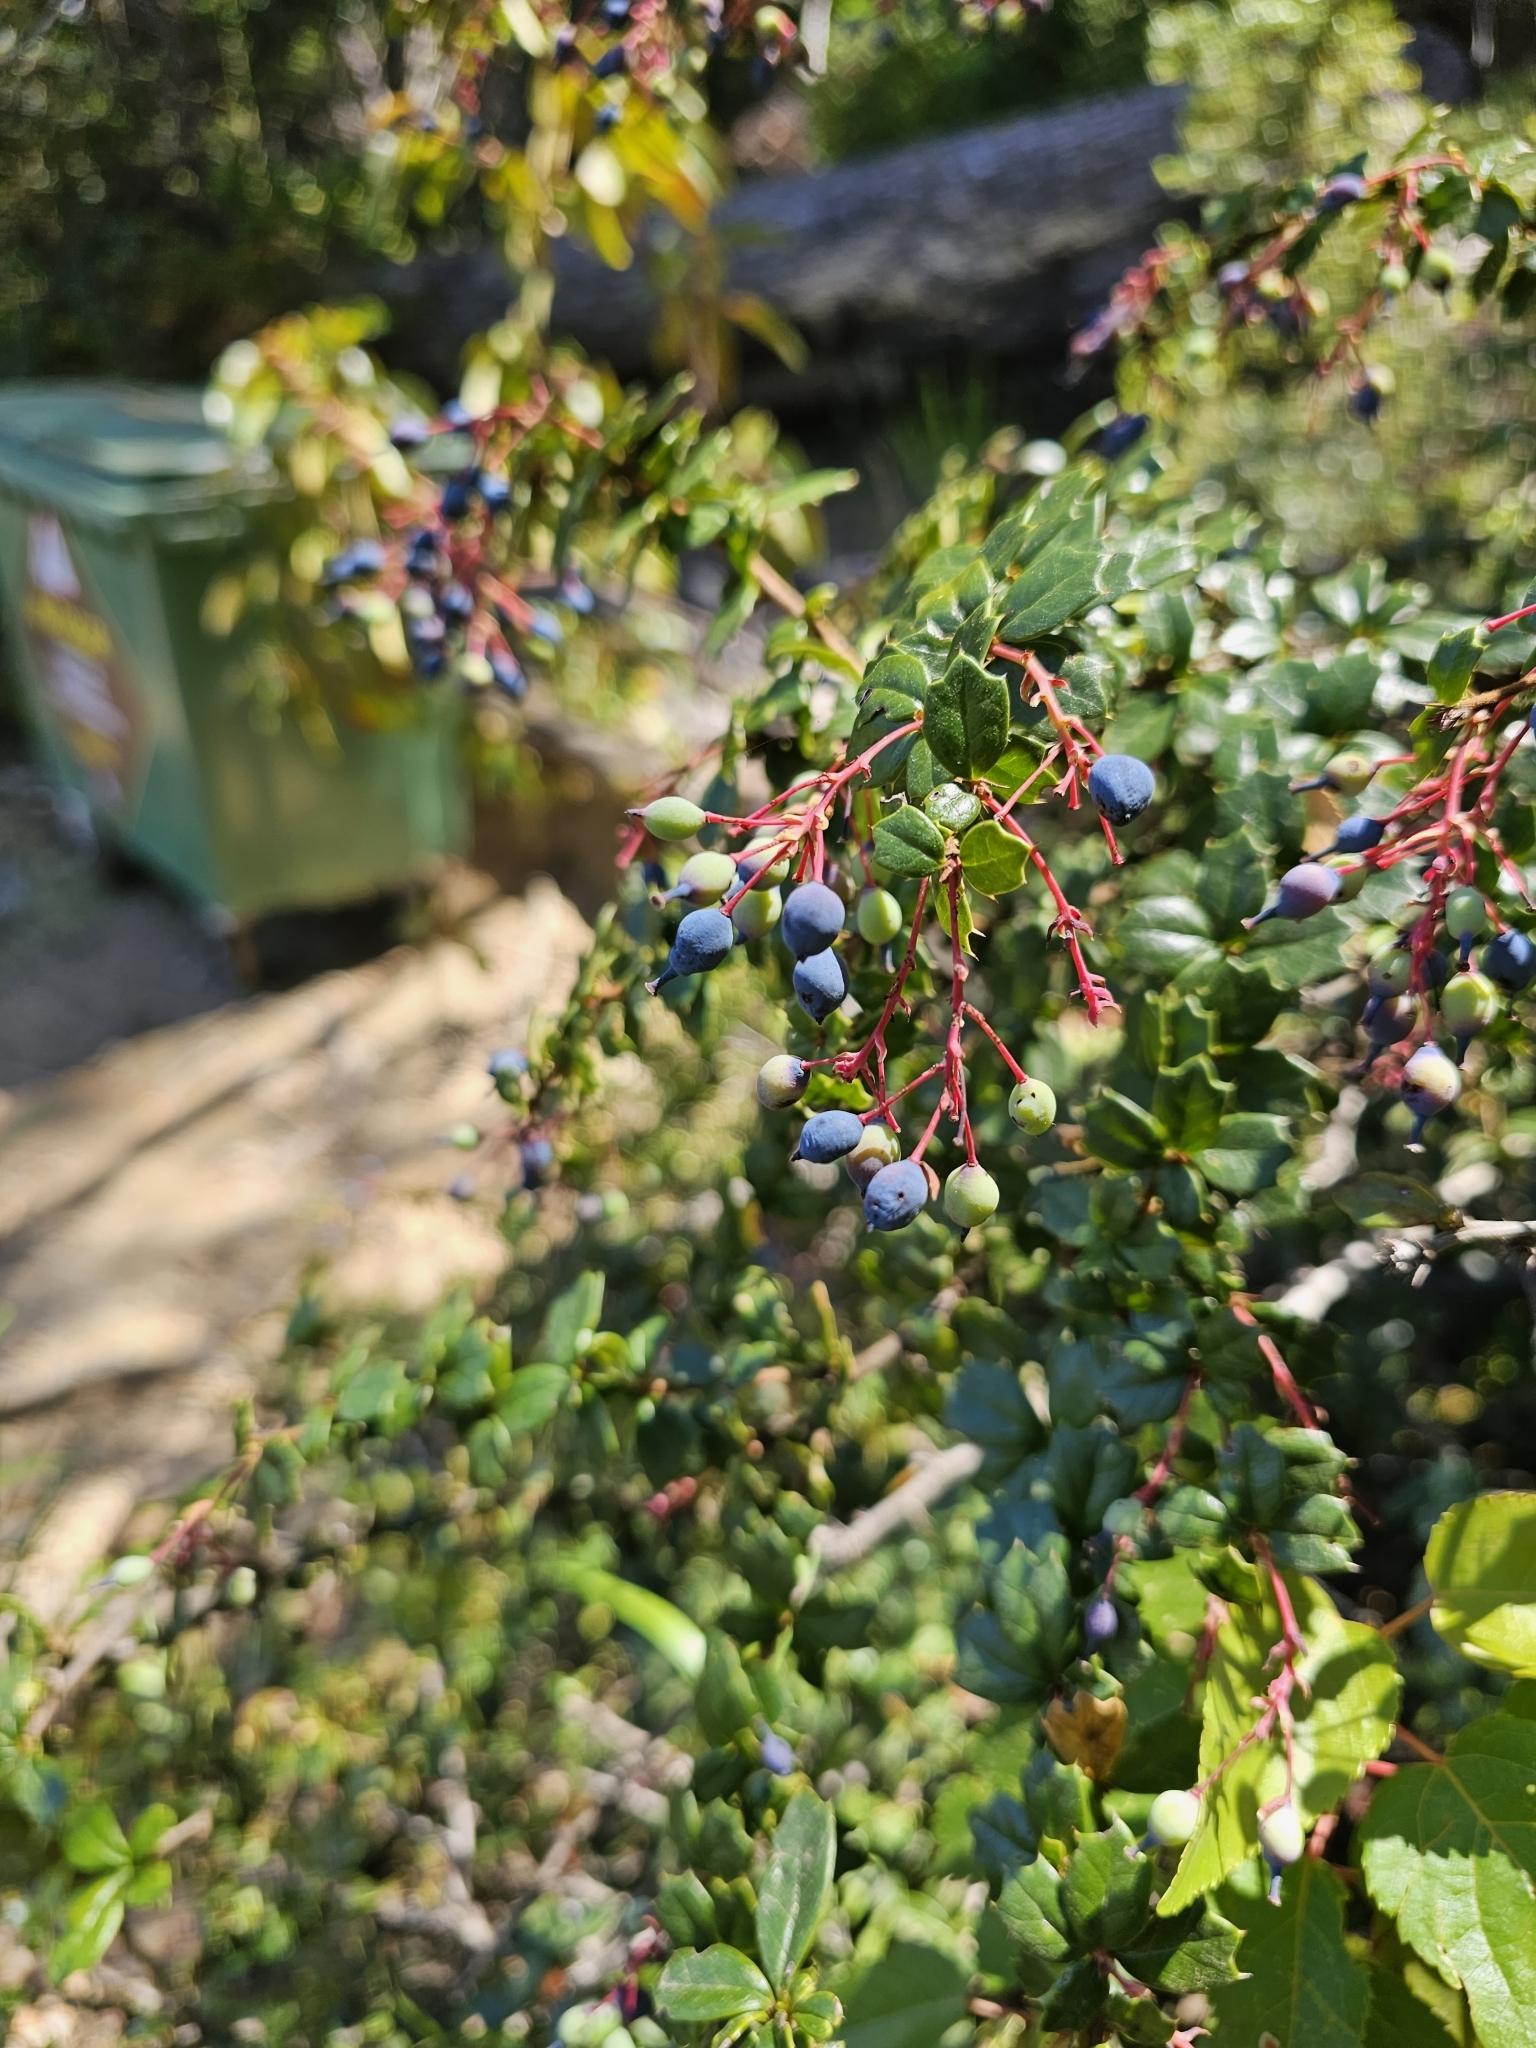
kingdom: Plantae
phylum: Tracheophyta
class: Magnoliopsida
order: Ranunculales
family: Berberidaceae
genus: Berberis
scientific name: Berberis darwinii
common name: Darwin's barberry
